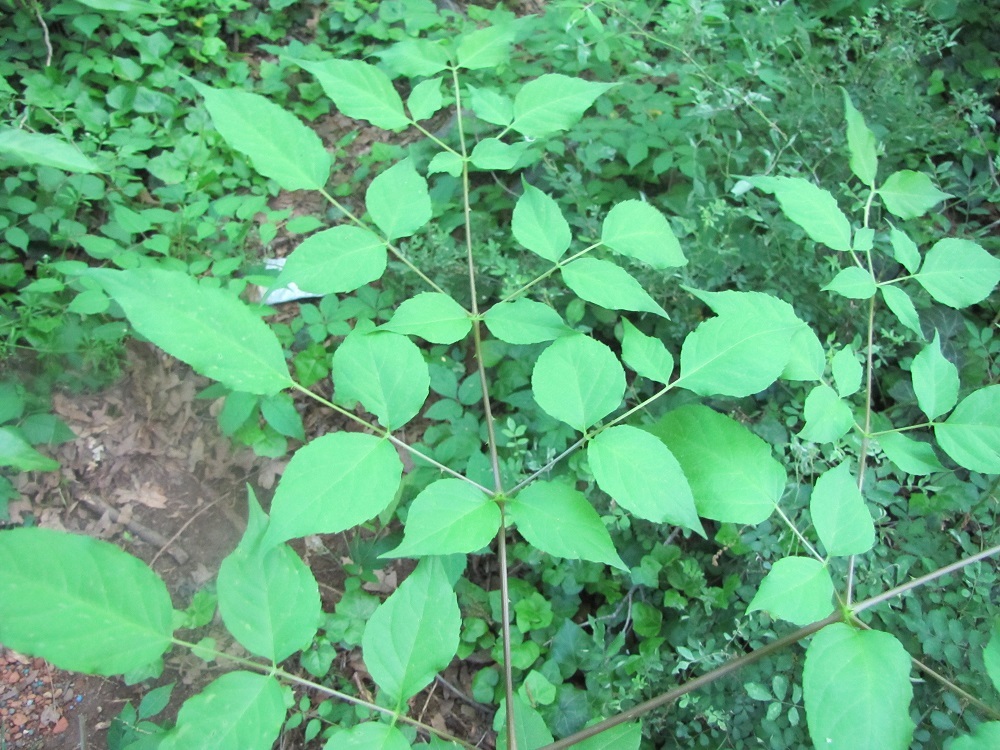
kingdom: Plantae
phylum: Tracheophyta
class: Magnoliopsida
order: Apiales
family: Araliaceae
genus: Aralia
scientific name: Aralia spinosa
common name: Hercules'-club
